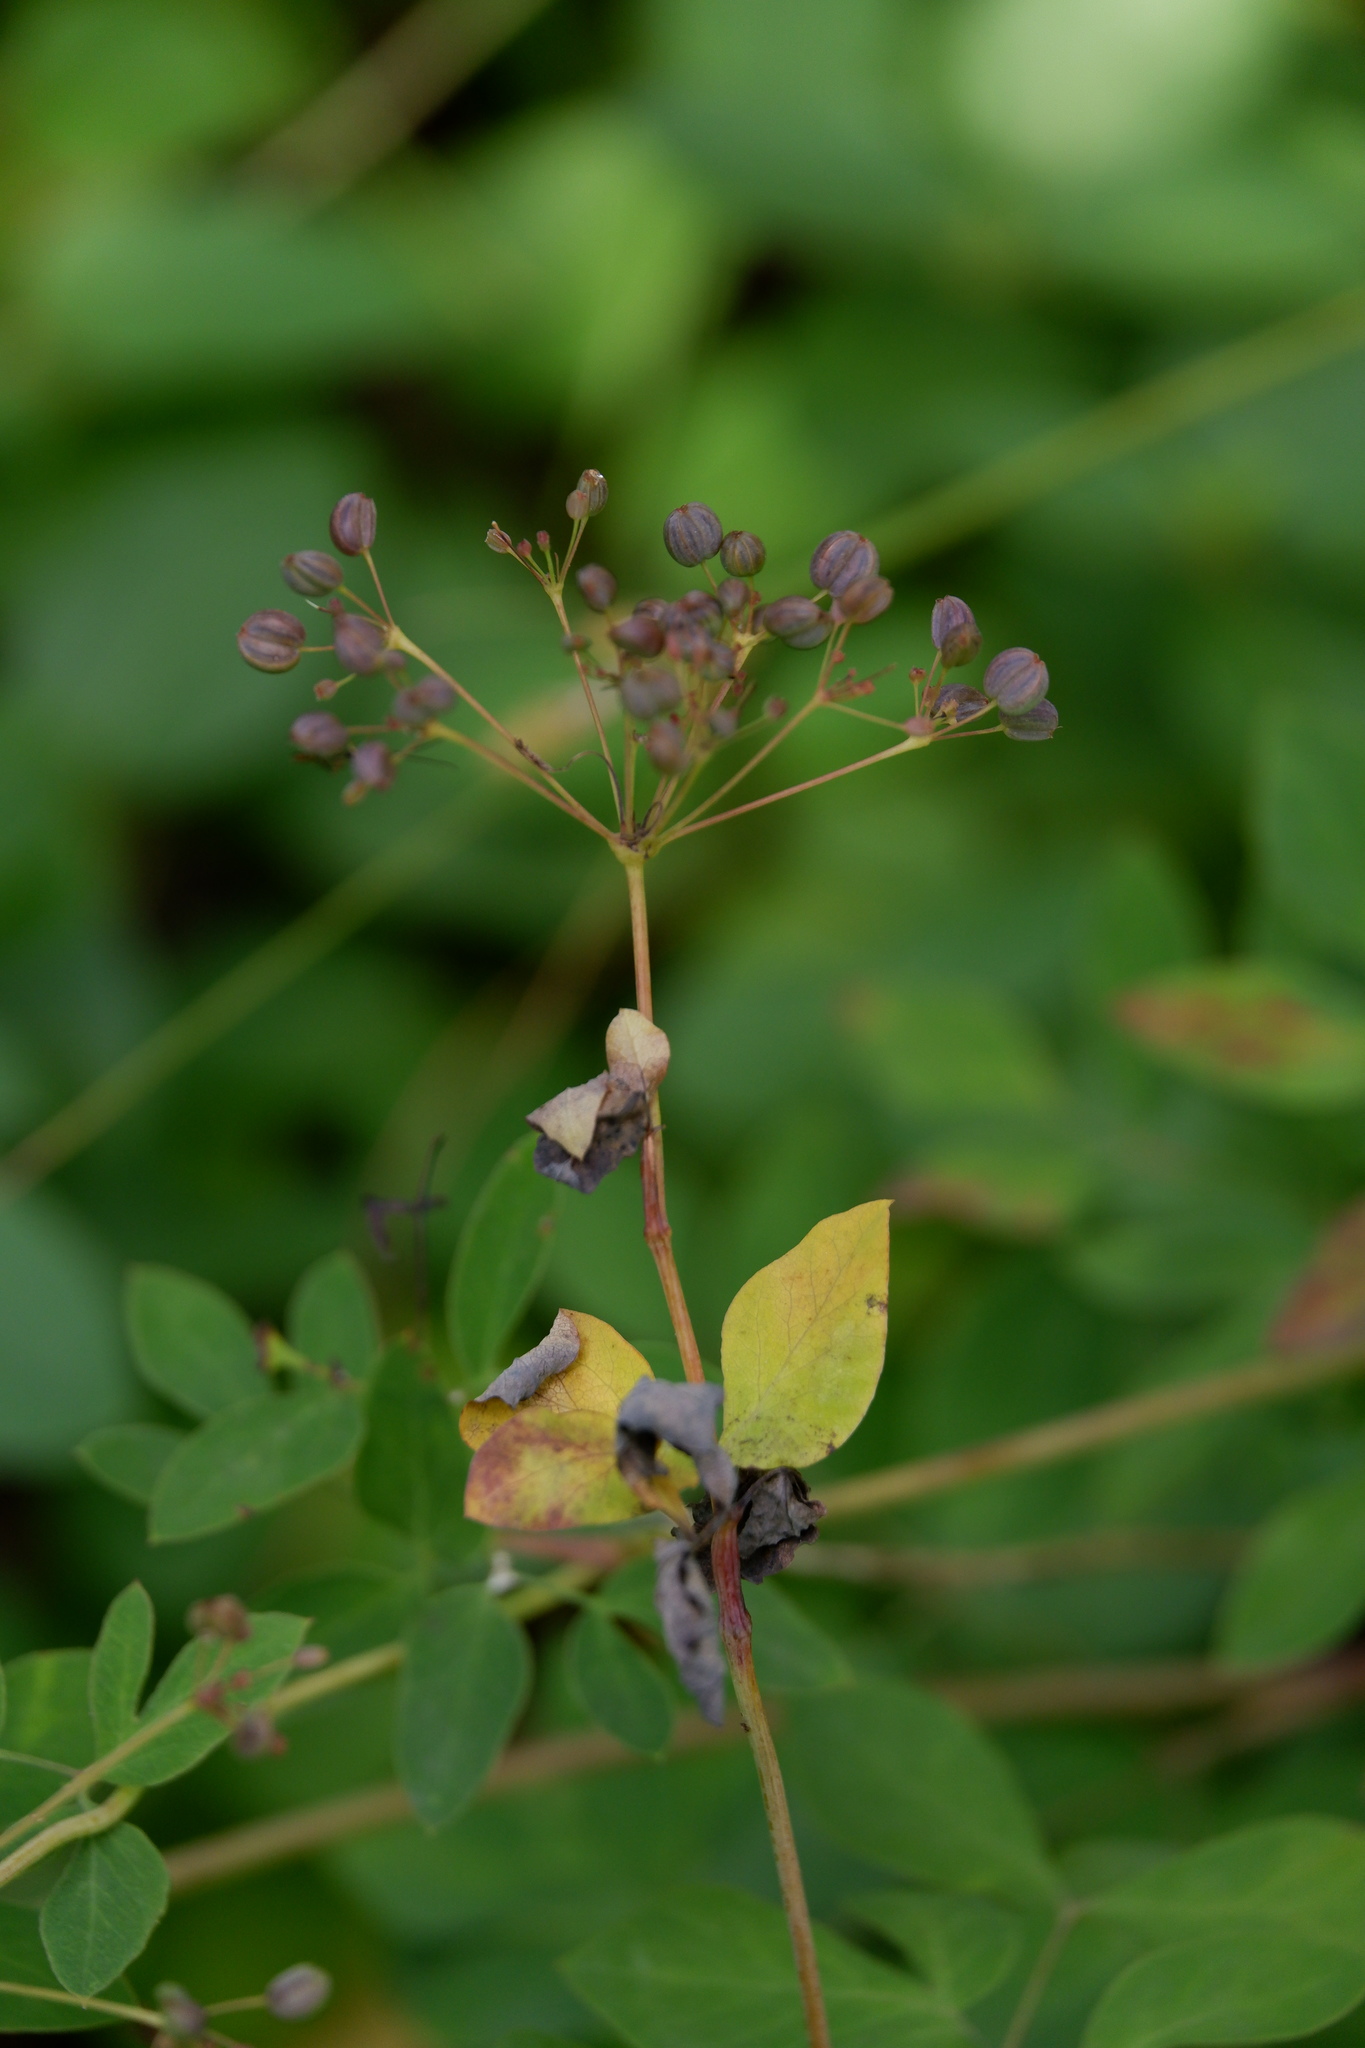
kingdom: Plantae
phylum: Tracheophyta
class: Magnoliopsida
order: Apiales
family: Apiaceae
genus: Taenidia
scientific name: Taenidia integerrima
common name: Golden alexander
